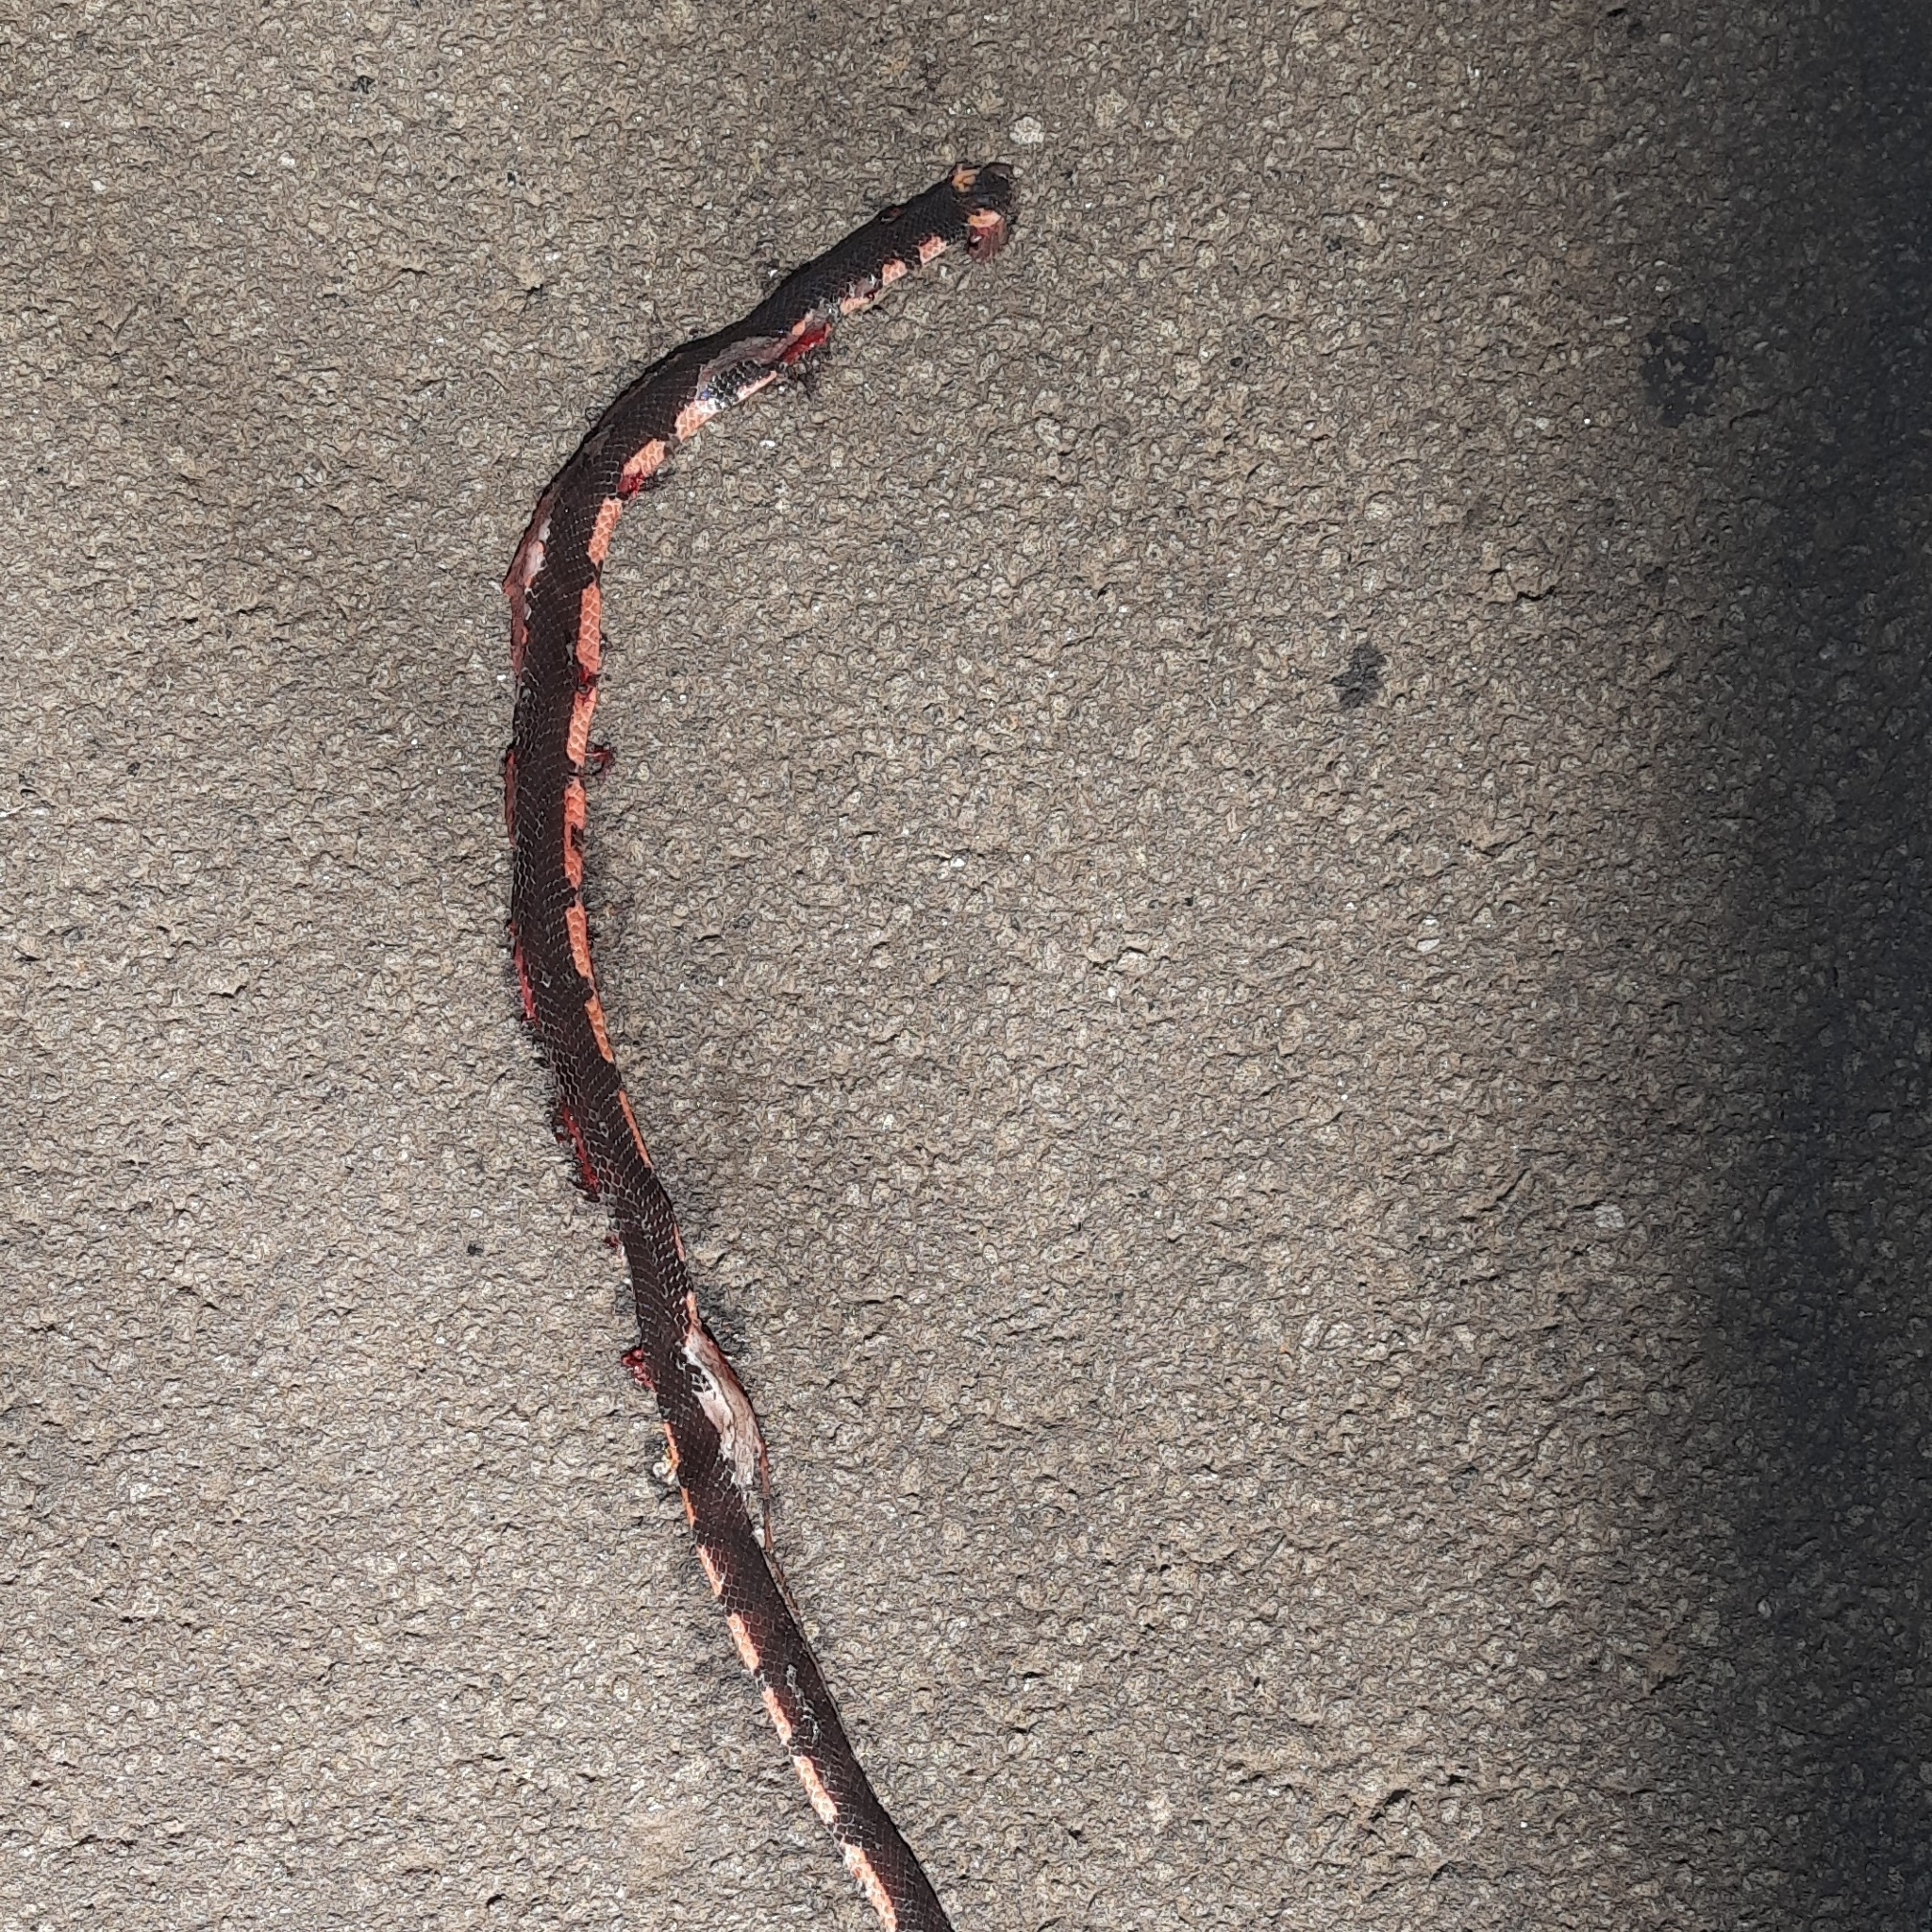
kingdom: Animalia
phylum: Chordata
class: Squamata
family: Elapidae
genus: Calliophis
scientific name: Calliophis bibroni
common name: Bibron's coral snake
